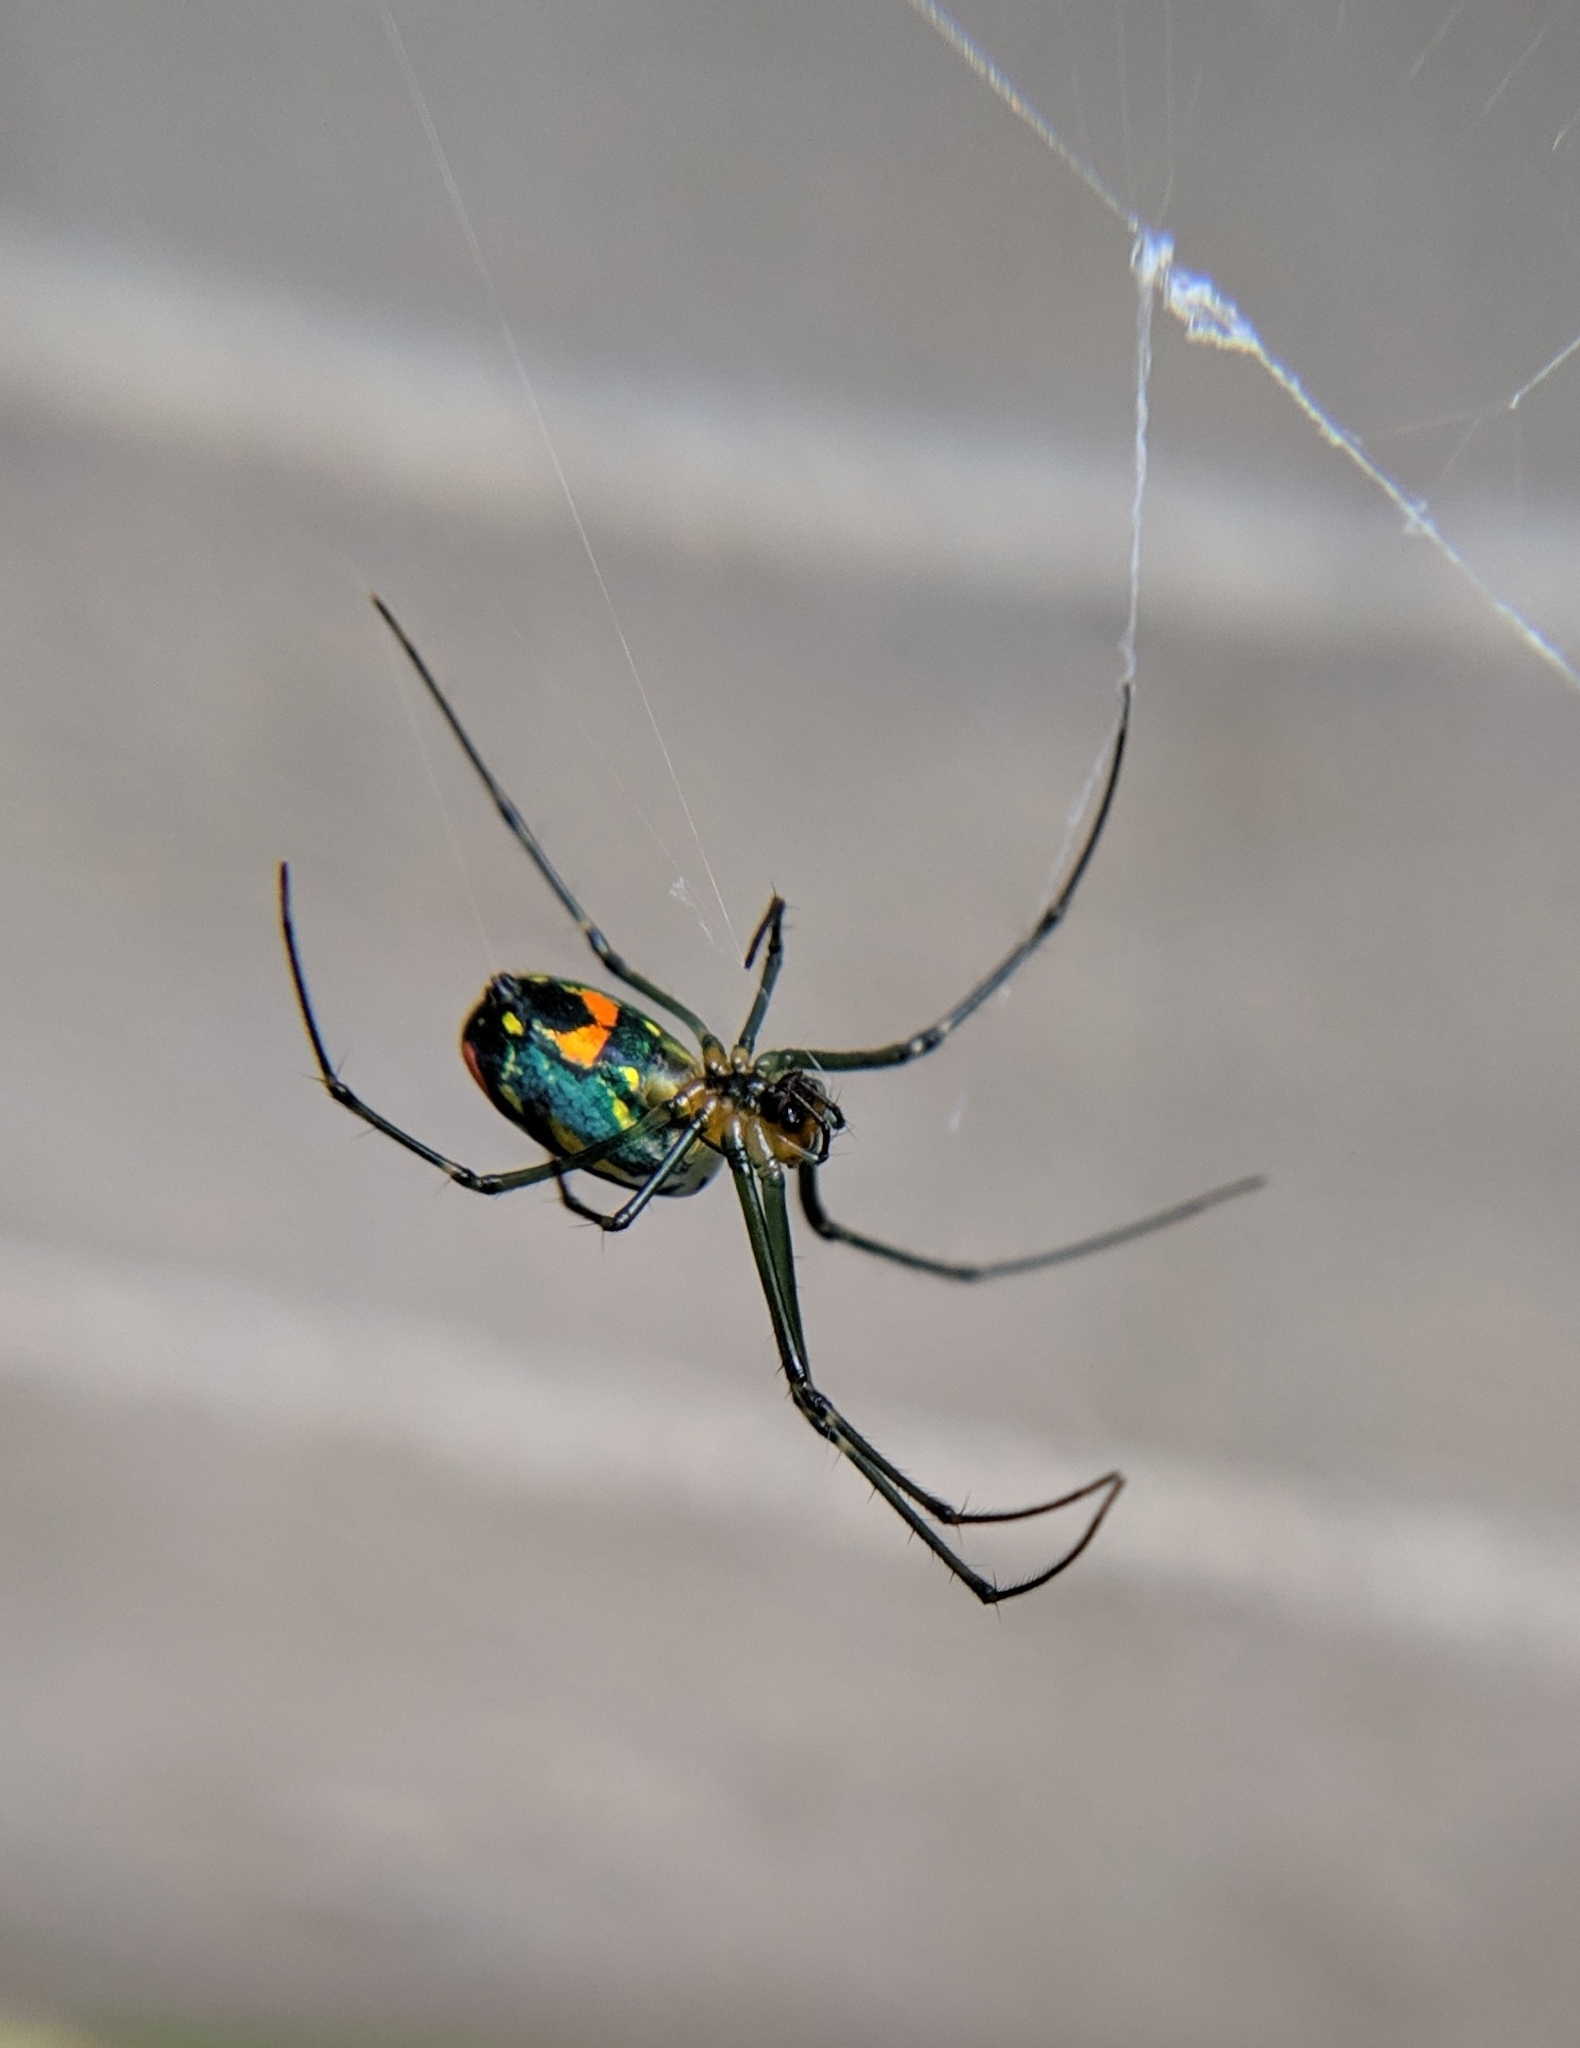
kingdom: Animalia
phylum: Arthropoda
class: Arachnida
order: Araneae
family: Tetragnathidae
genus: Leucauge
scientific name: Leucauge argyrobapta
